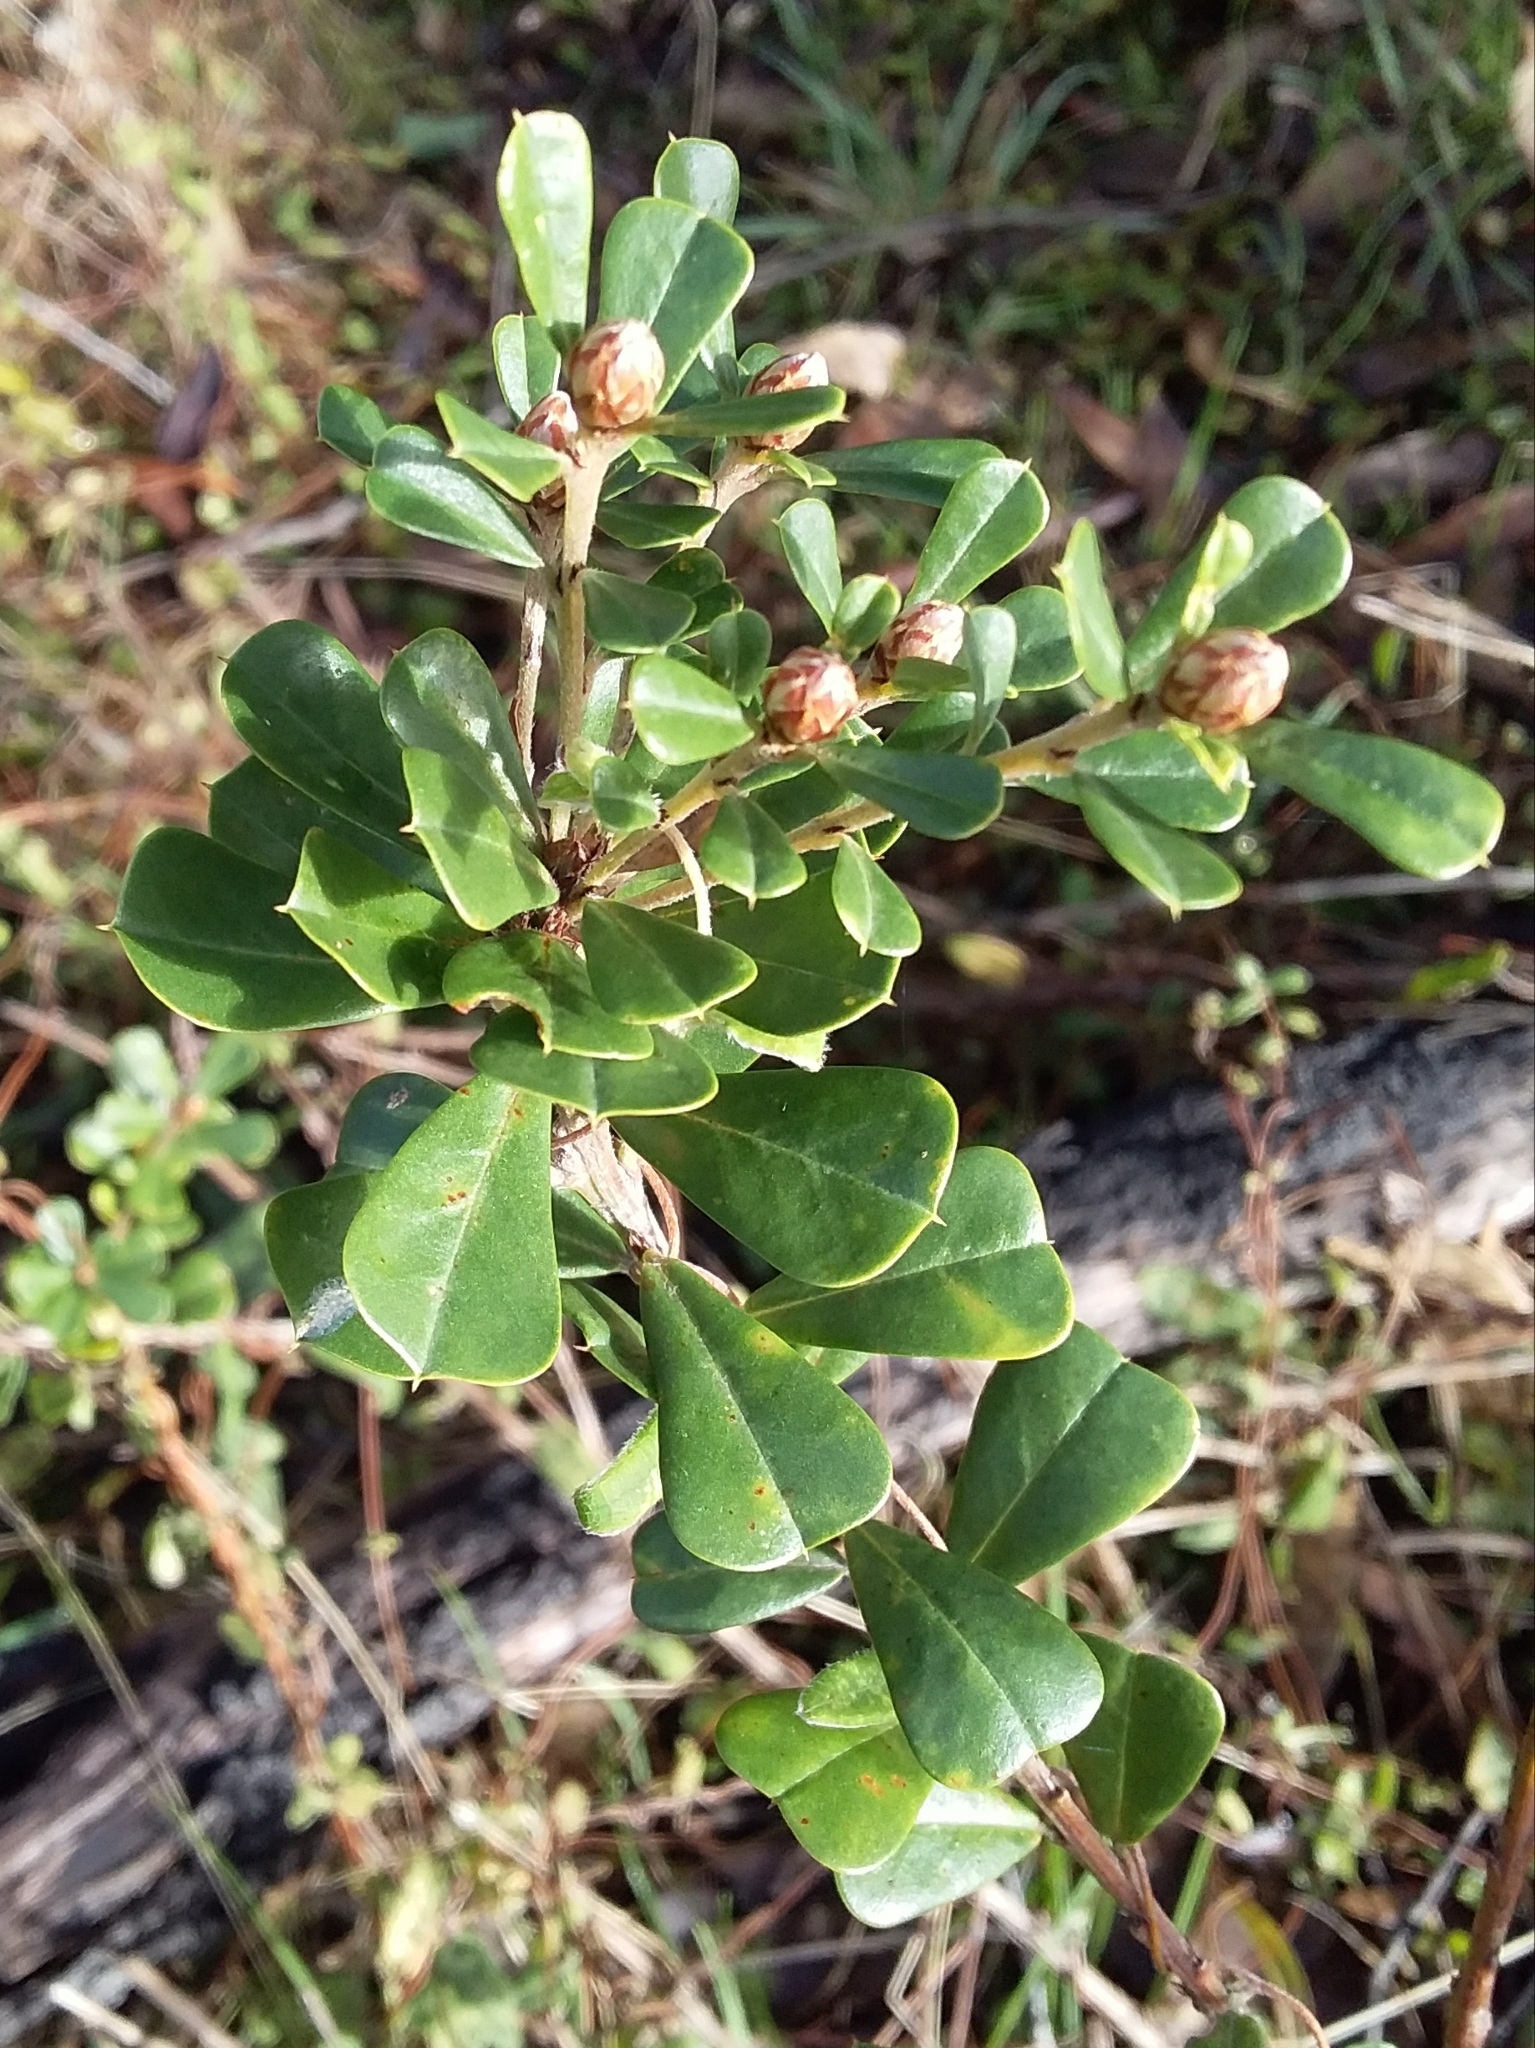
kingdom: Plantae
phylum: Tracheophyta
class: Magnoliopsida
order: Fabales
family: Fabaceae
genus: Pultenaea
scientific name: Pultenaea daphnoides
